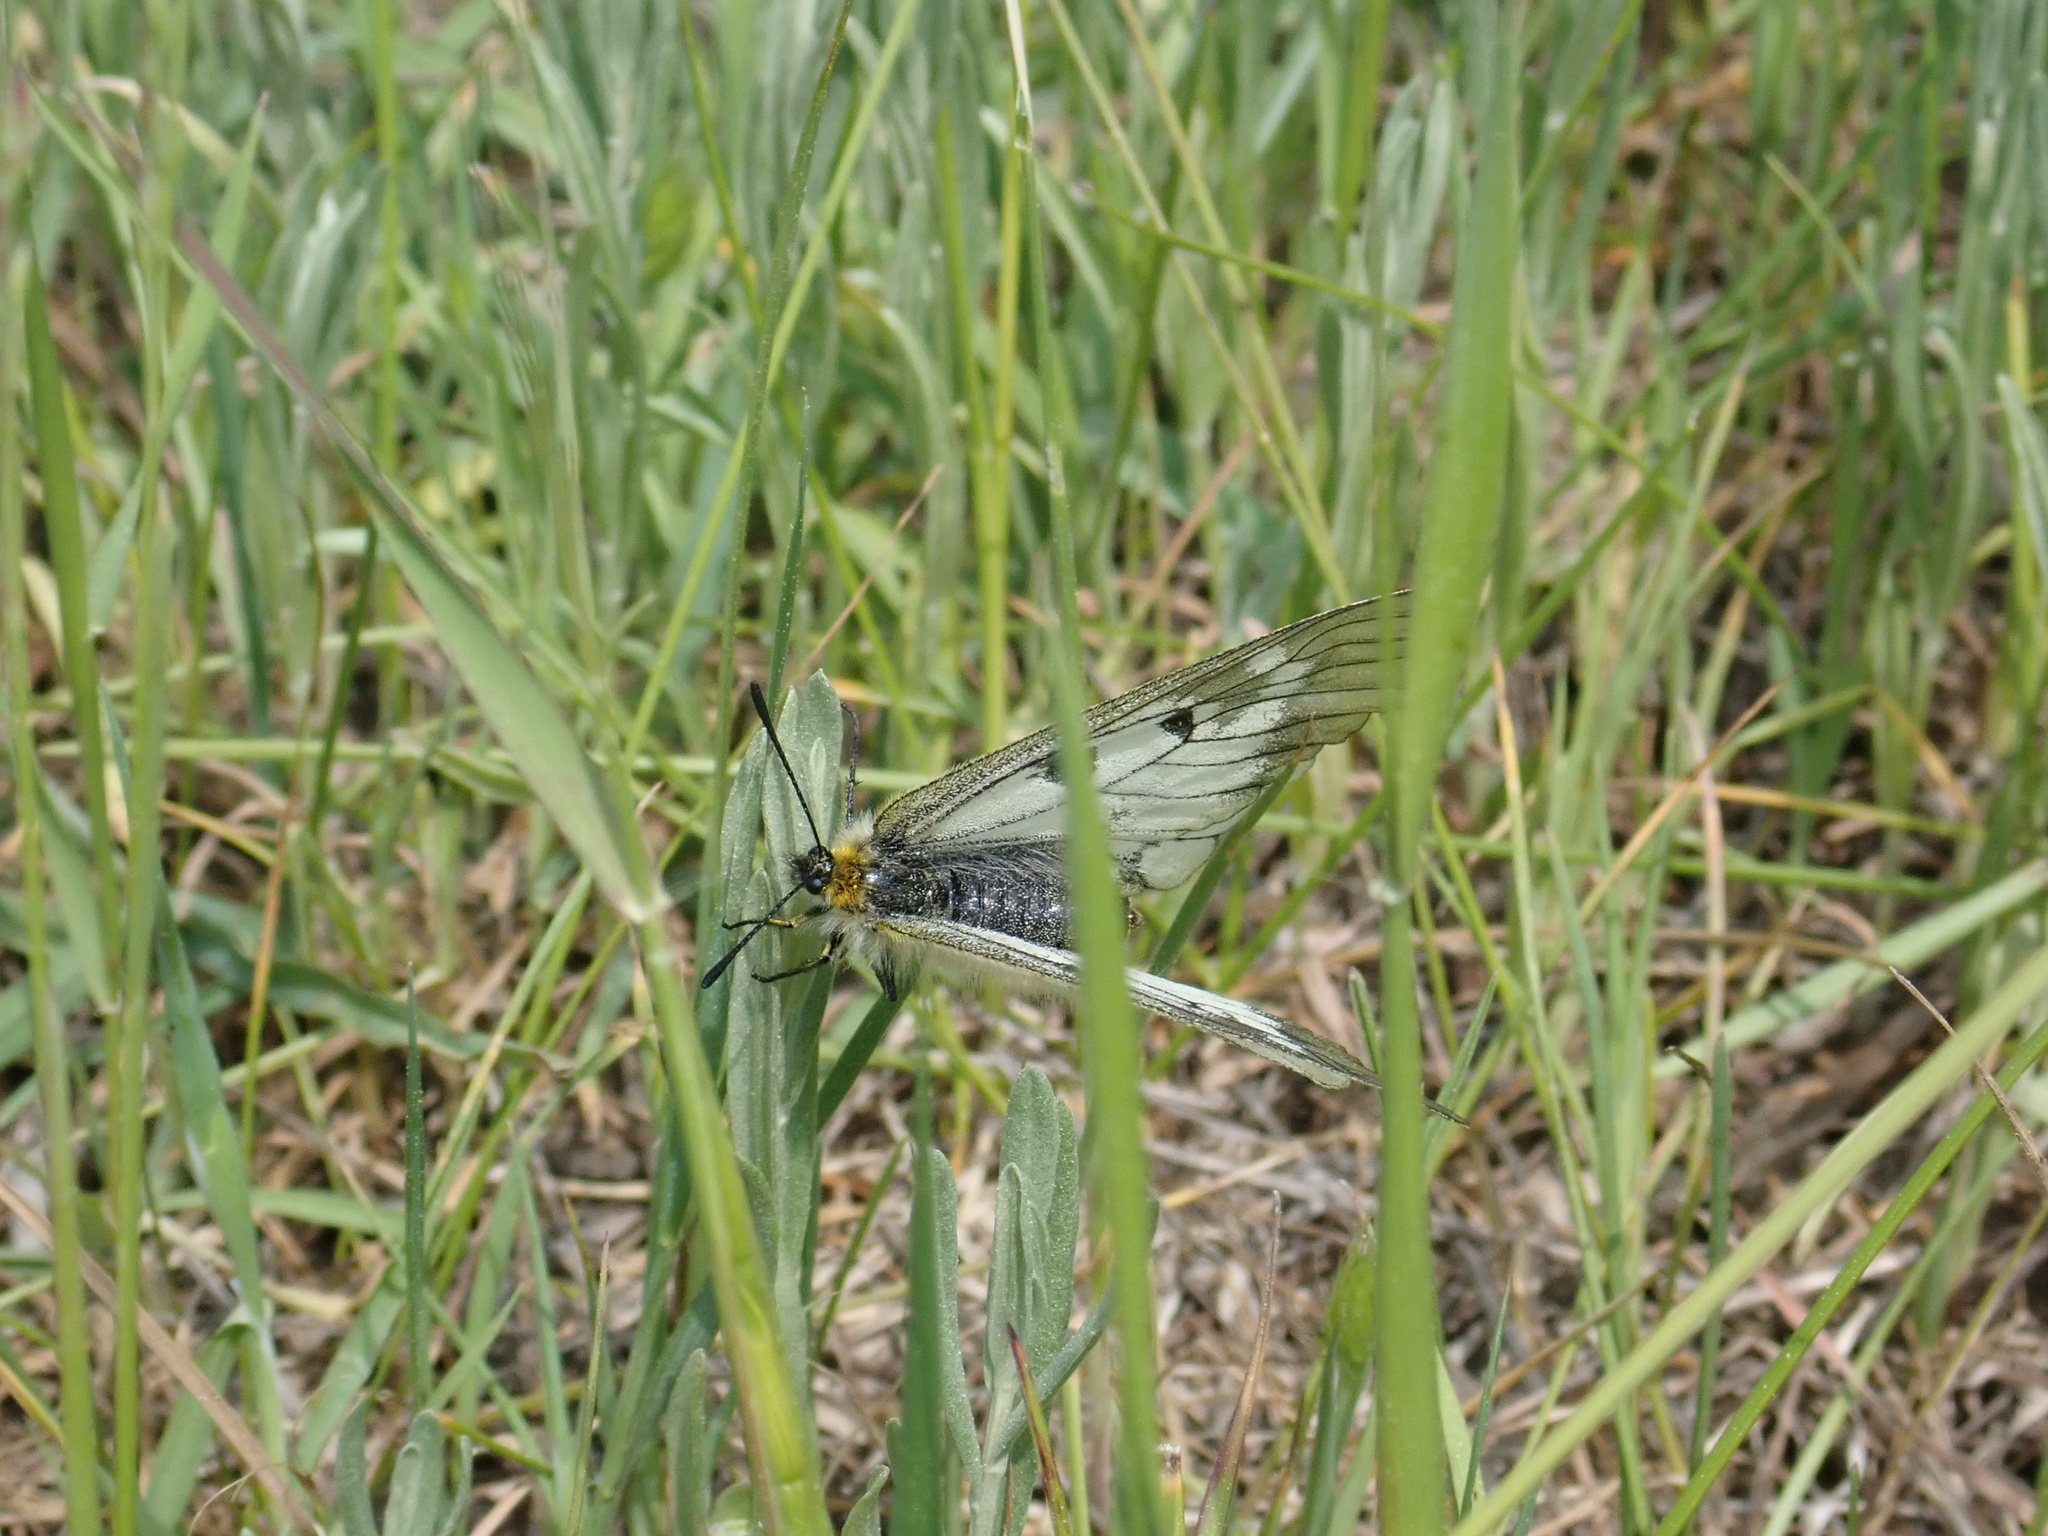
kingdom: Animalia
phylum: Arthropoda
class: Insecta
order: Lepidoptera
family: Papilionidae
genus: Parnassius
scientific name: Parnassius mnemosyne
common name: Clouded apollo
